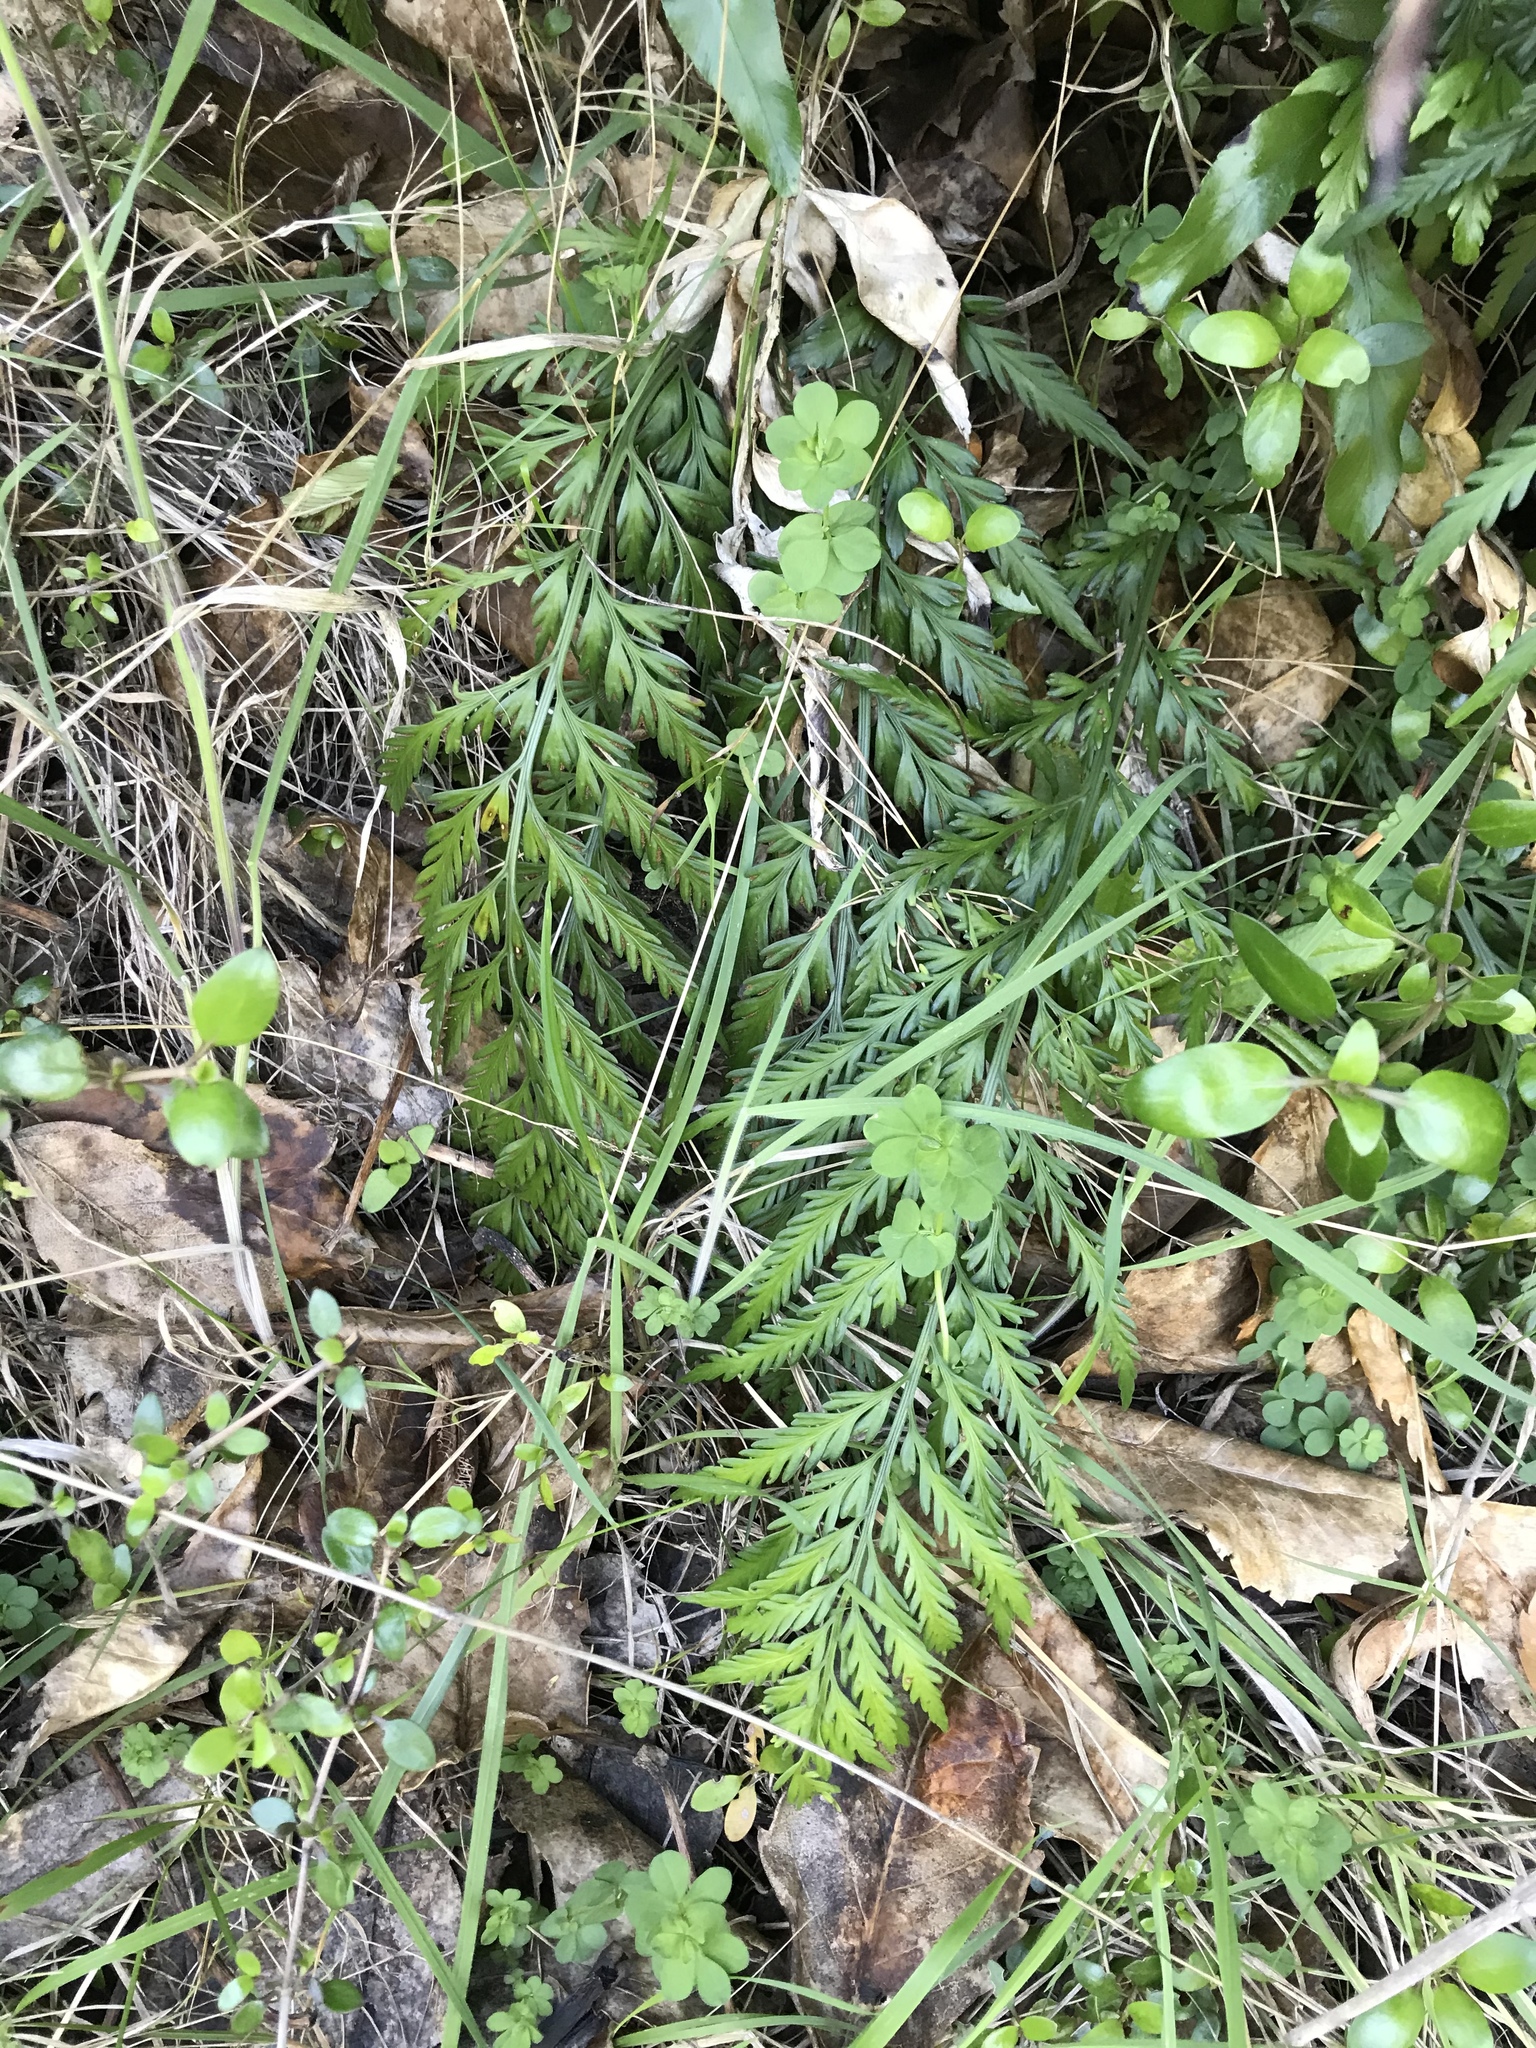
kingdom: Plantae
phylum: Tracheophyta
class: Polypodiopsida
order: Polypodiales
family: Aspleniaceae
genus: Asplenium
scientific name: Asplenium appendiculatum
